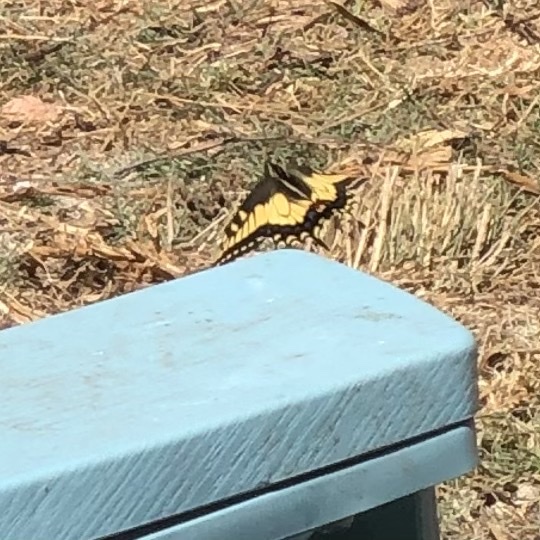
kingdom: Animalia
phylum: Arthropoda
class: Insecta
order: Lepidoptera
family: Papilionidae
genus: Papilio
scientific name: Papilio zelicaon
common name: Anise swallowtail
